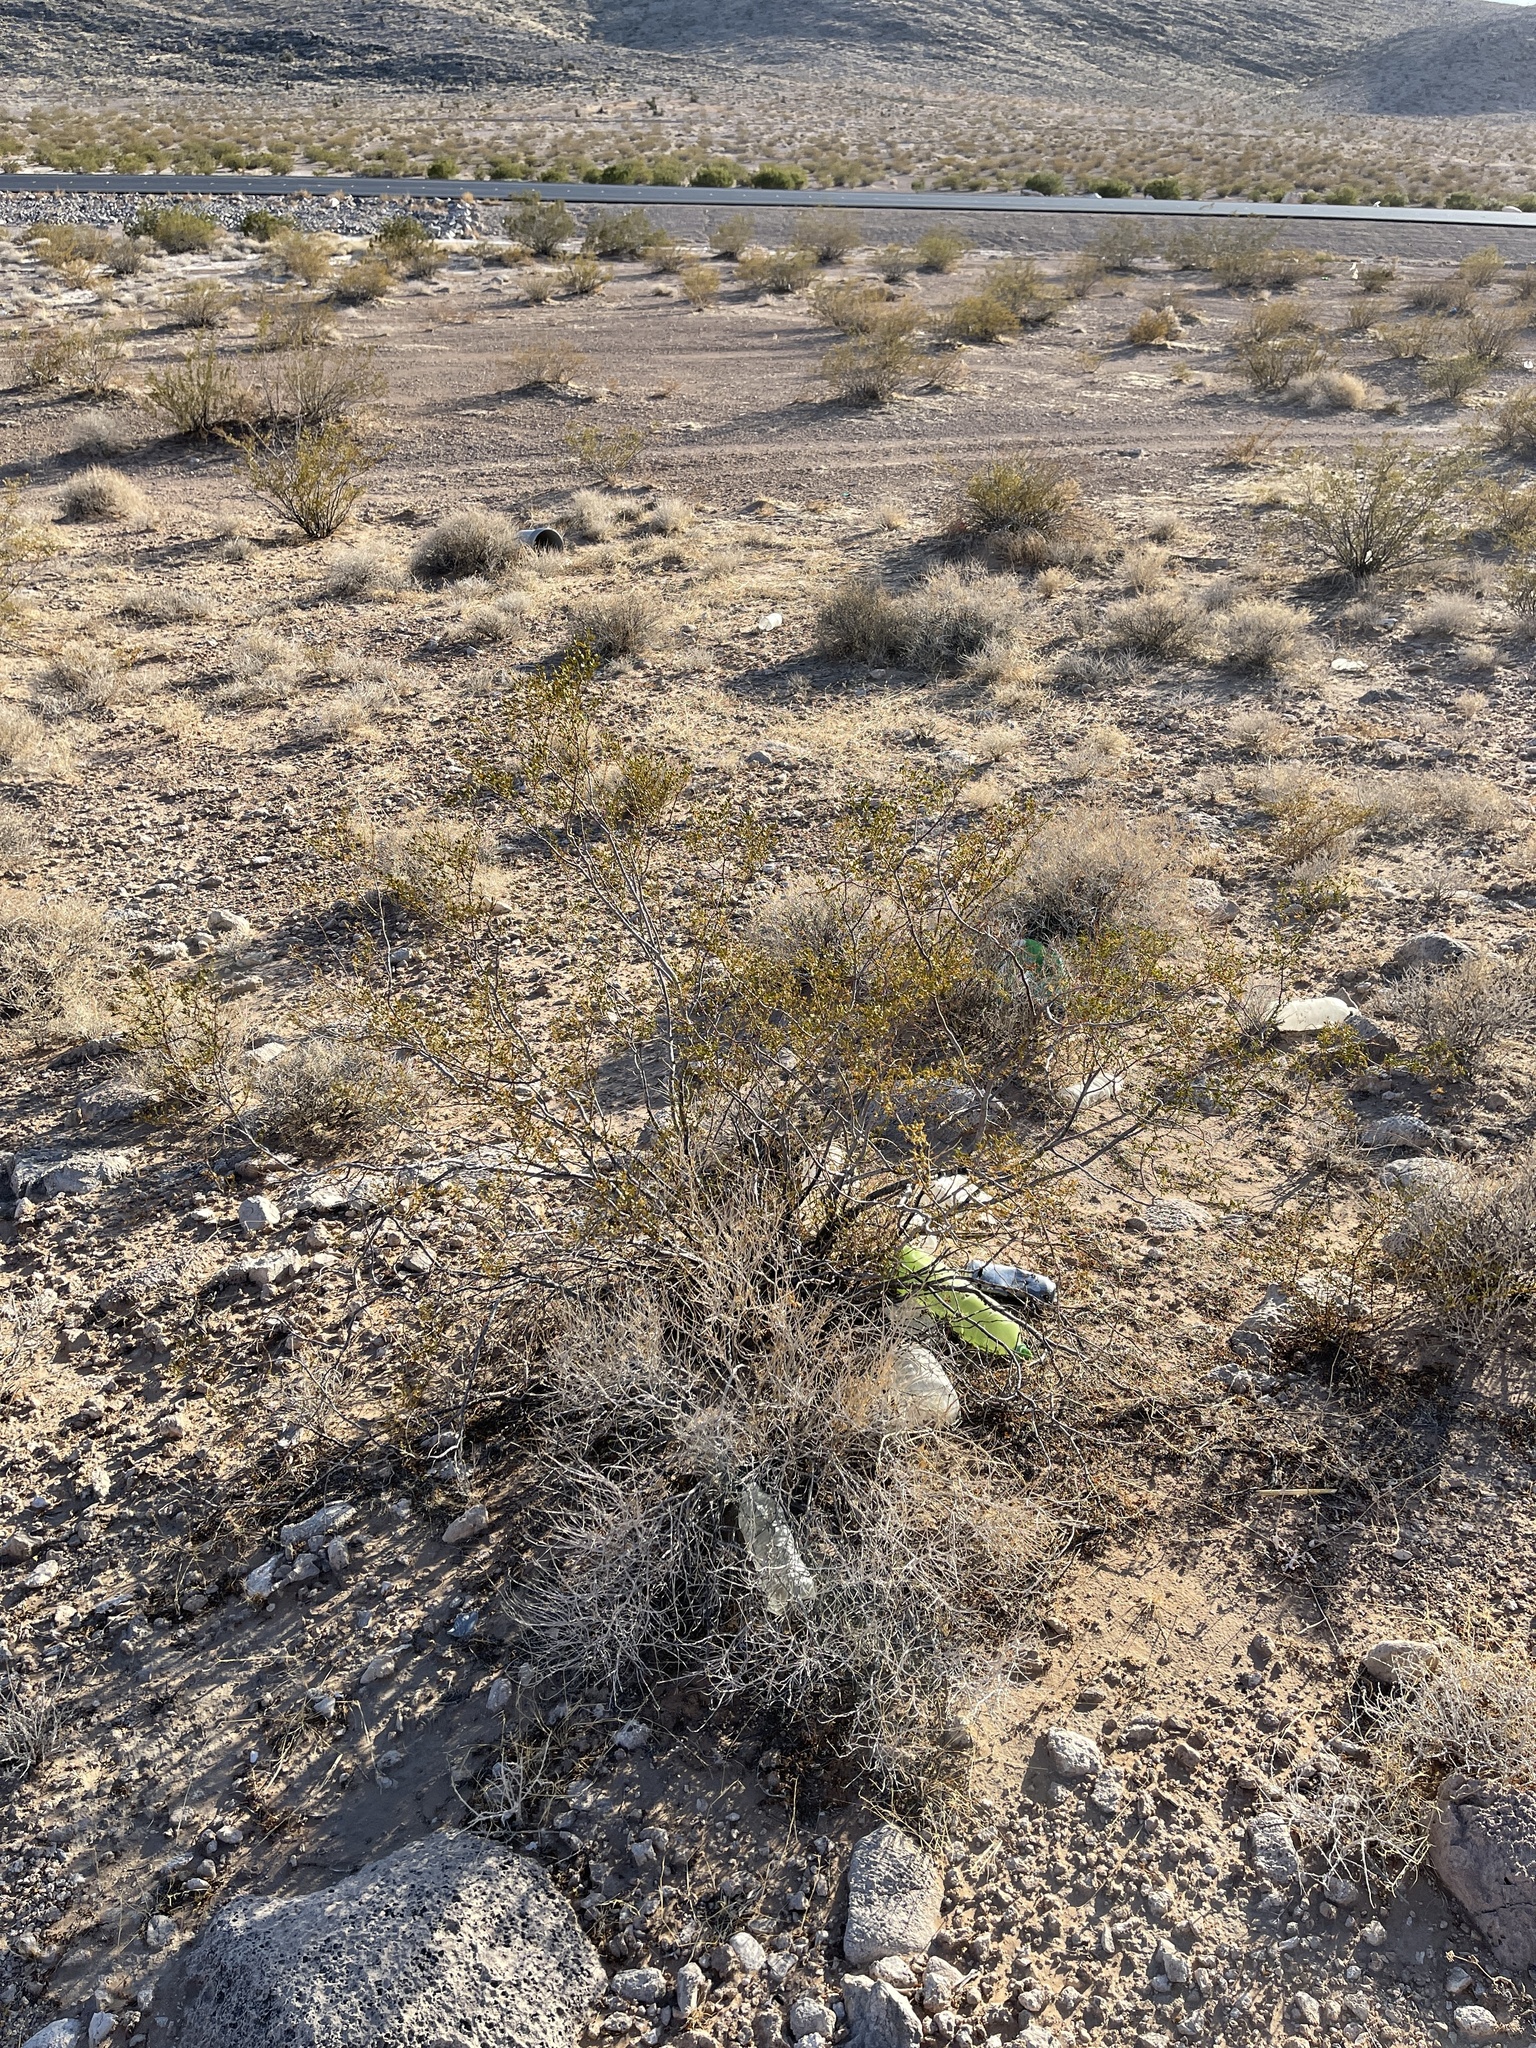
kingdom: Plantae
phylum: Tracheophyta
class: Magnoliopsida
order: Zygophyllales
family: Zygophyllaceae
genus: Larrea
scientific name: Larrea tridentata
